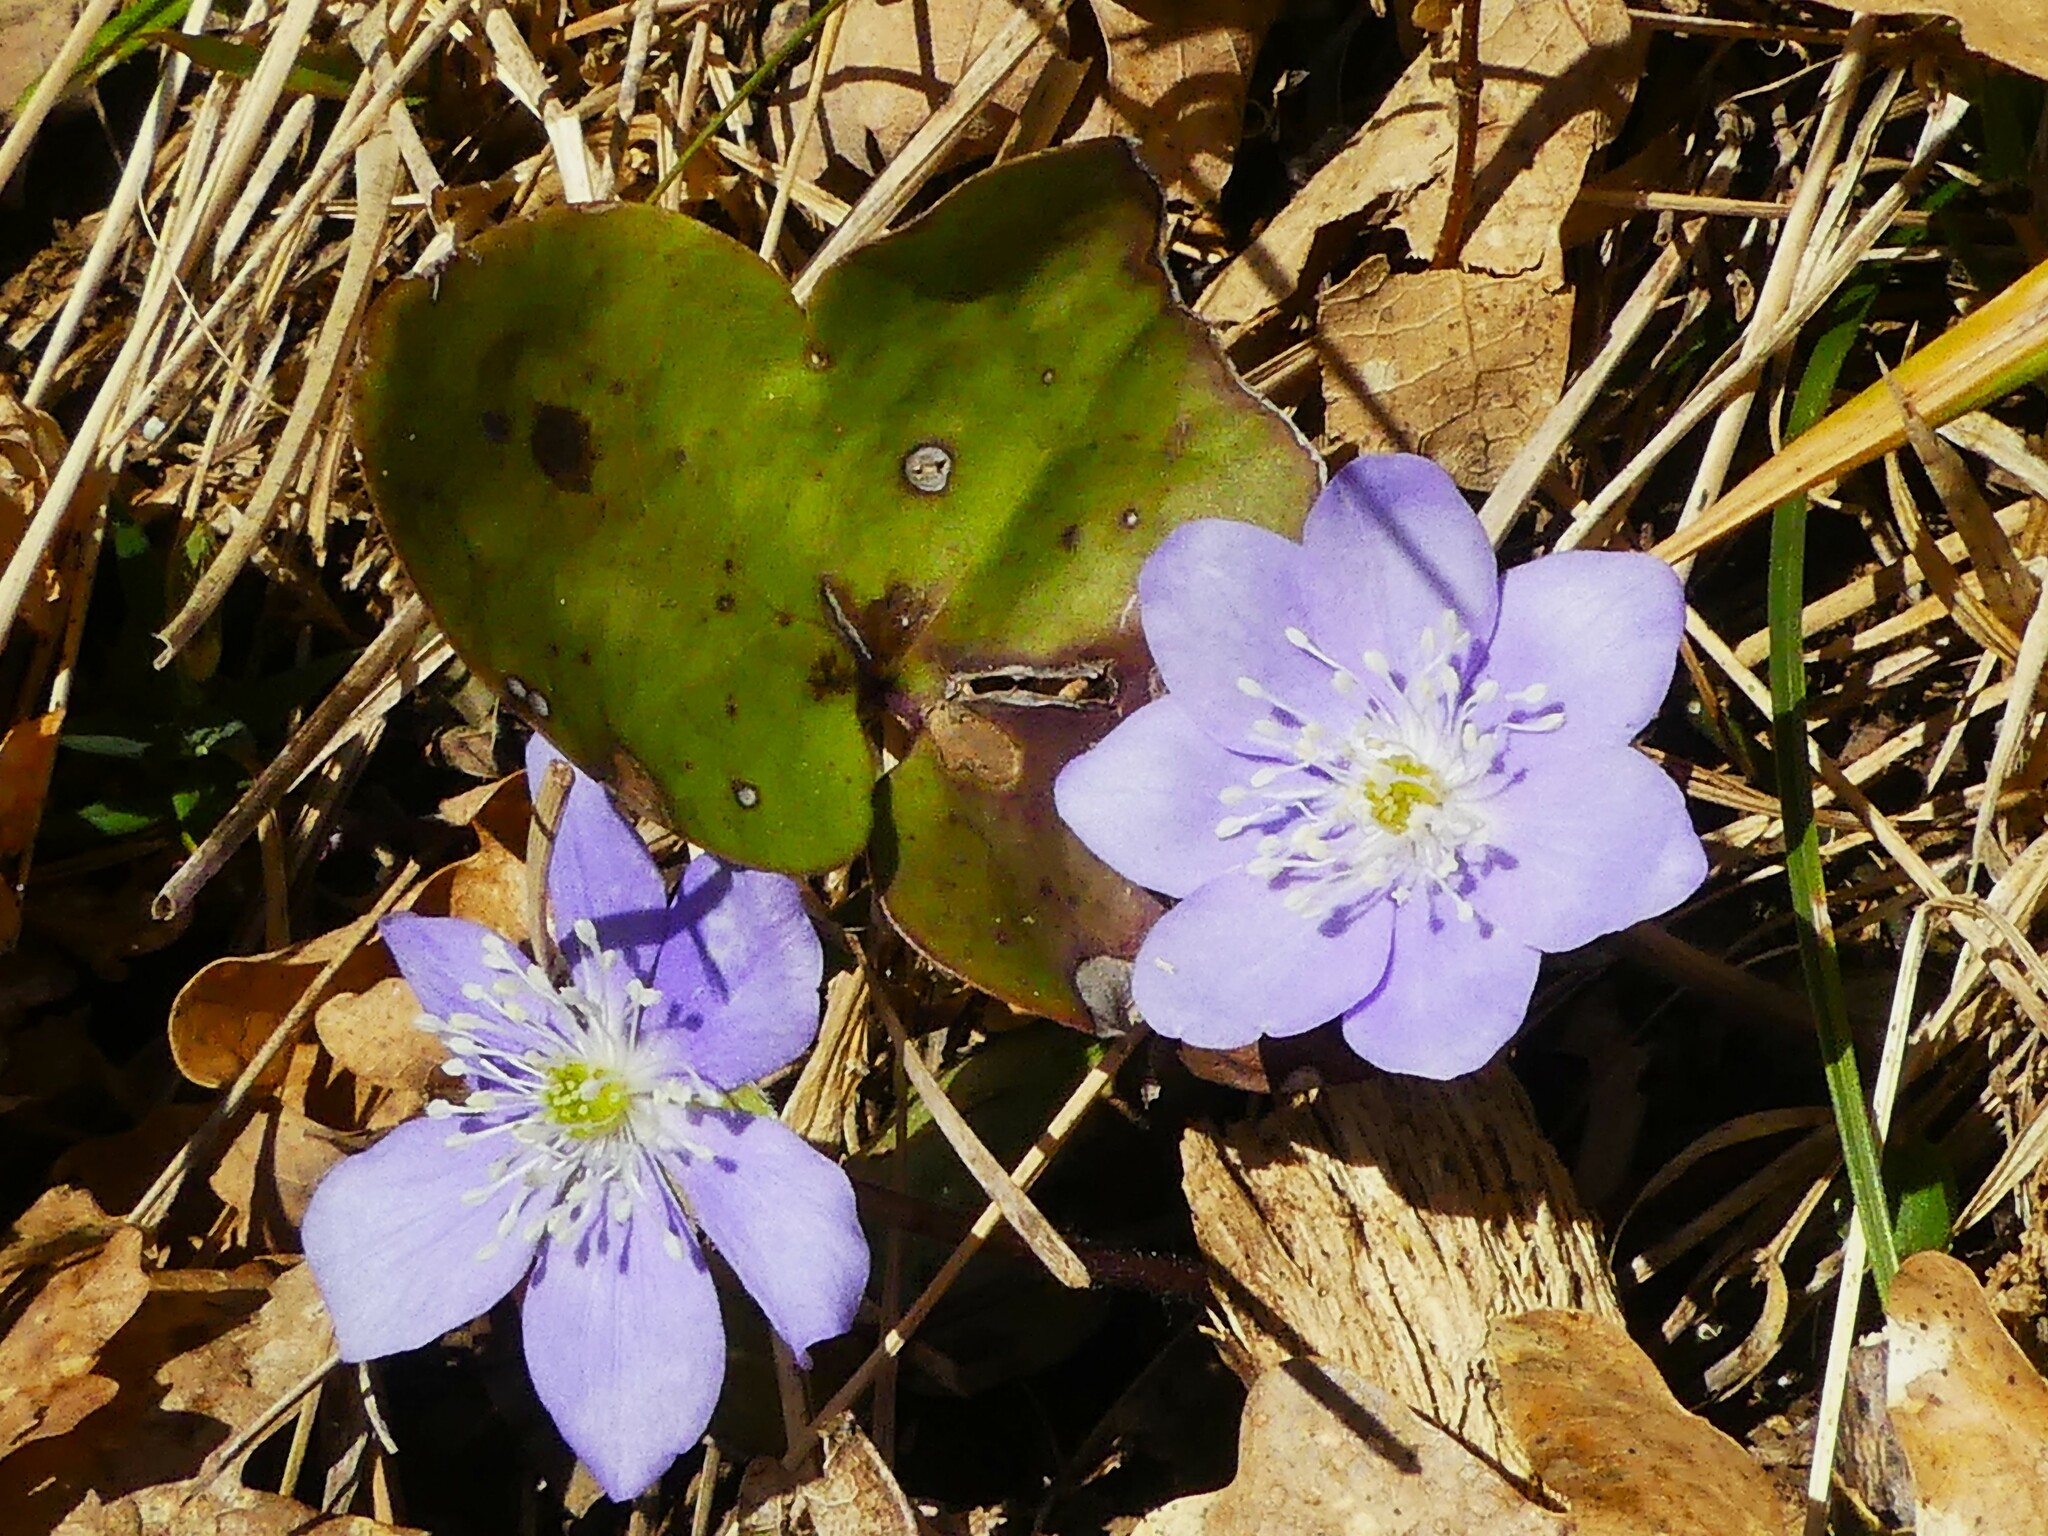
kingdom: Plantae
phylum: Tracheophyta
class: Magnoliopsida
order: Ranunculales
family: Ranunculaceae
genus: Hepatica
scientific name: Hepatica nobilis
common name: Liverleaf
